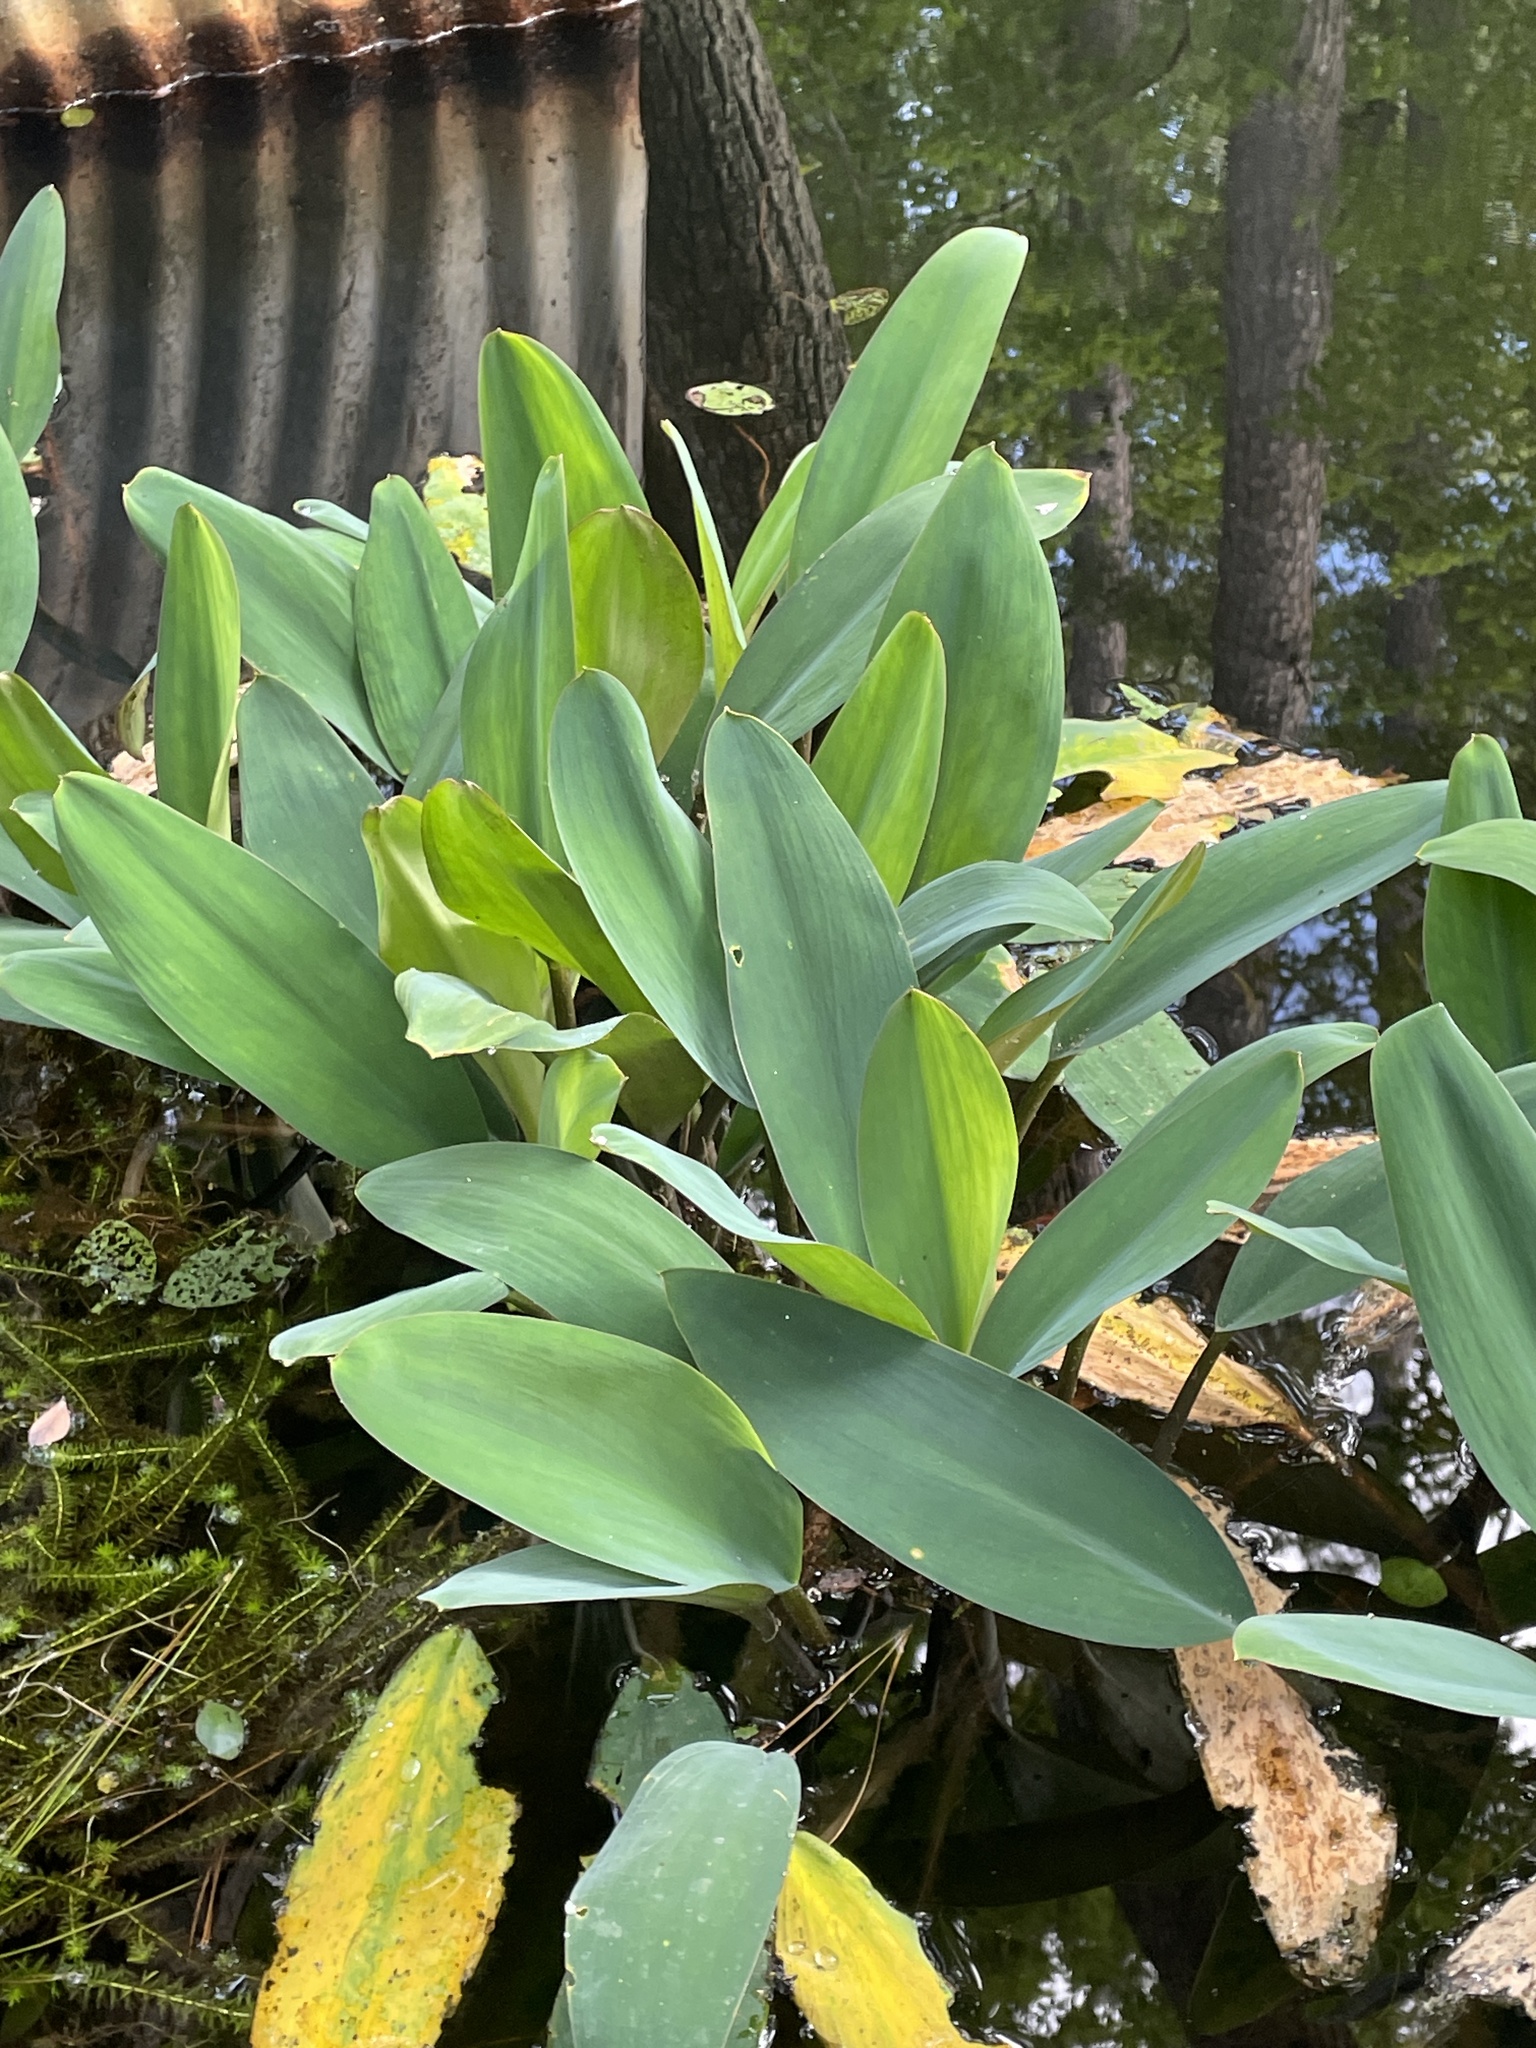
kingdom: Plantae
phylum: Tracheophyta
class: Liliopsida
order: Alismatales
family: Araceae
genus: Orontium
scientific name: Orontium aquaticum
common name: Golden-club
